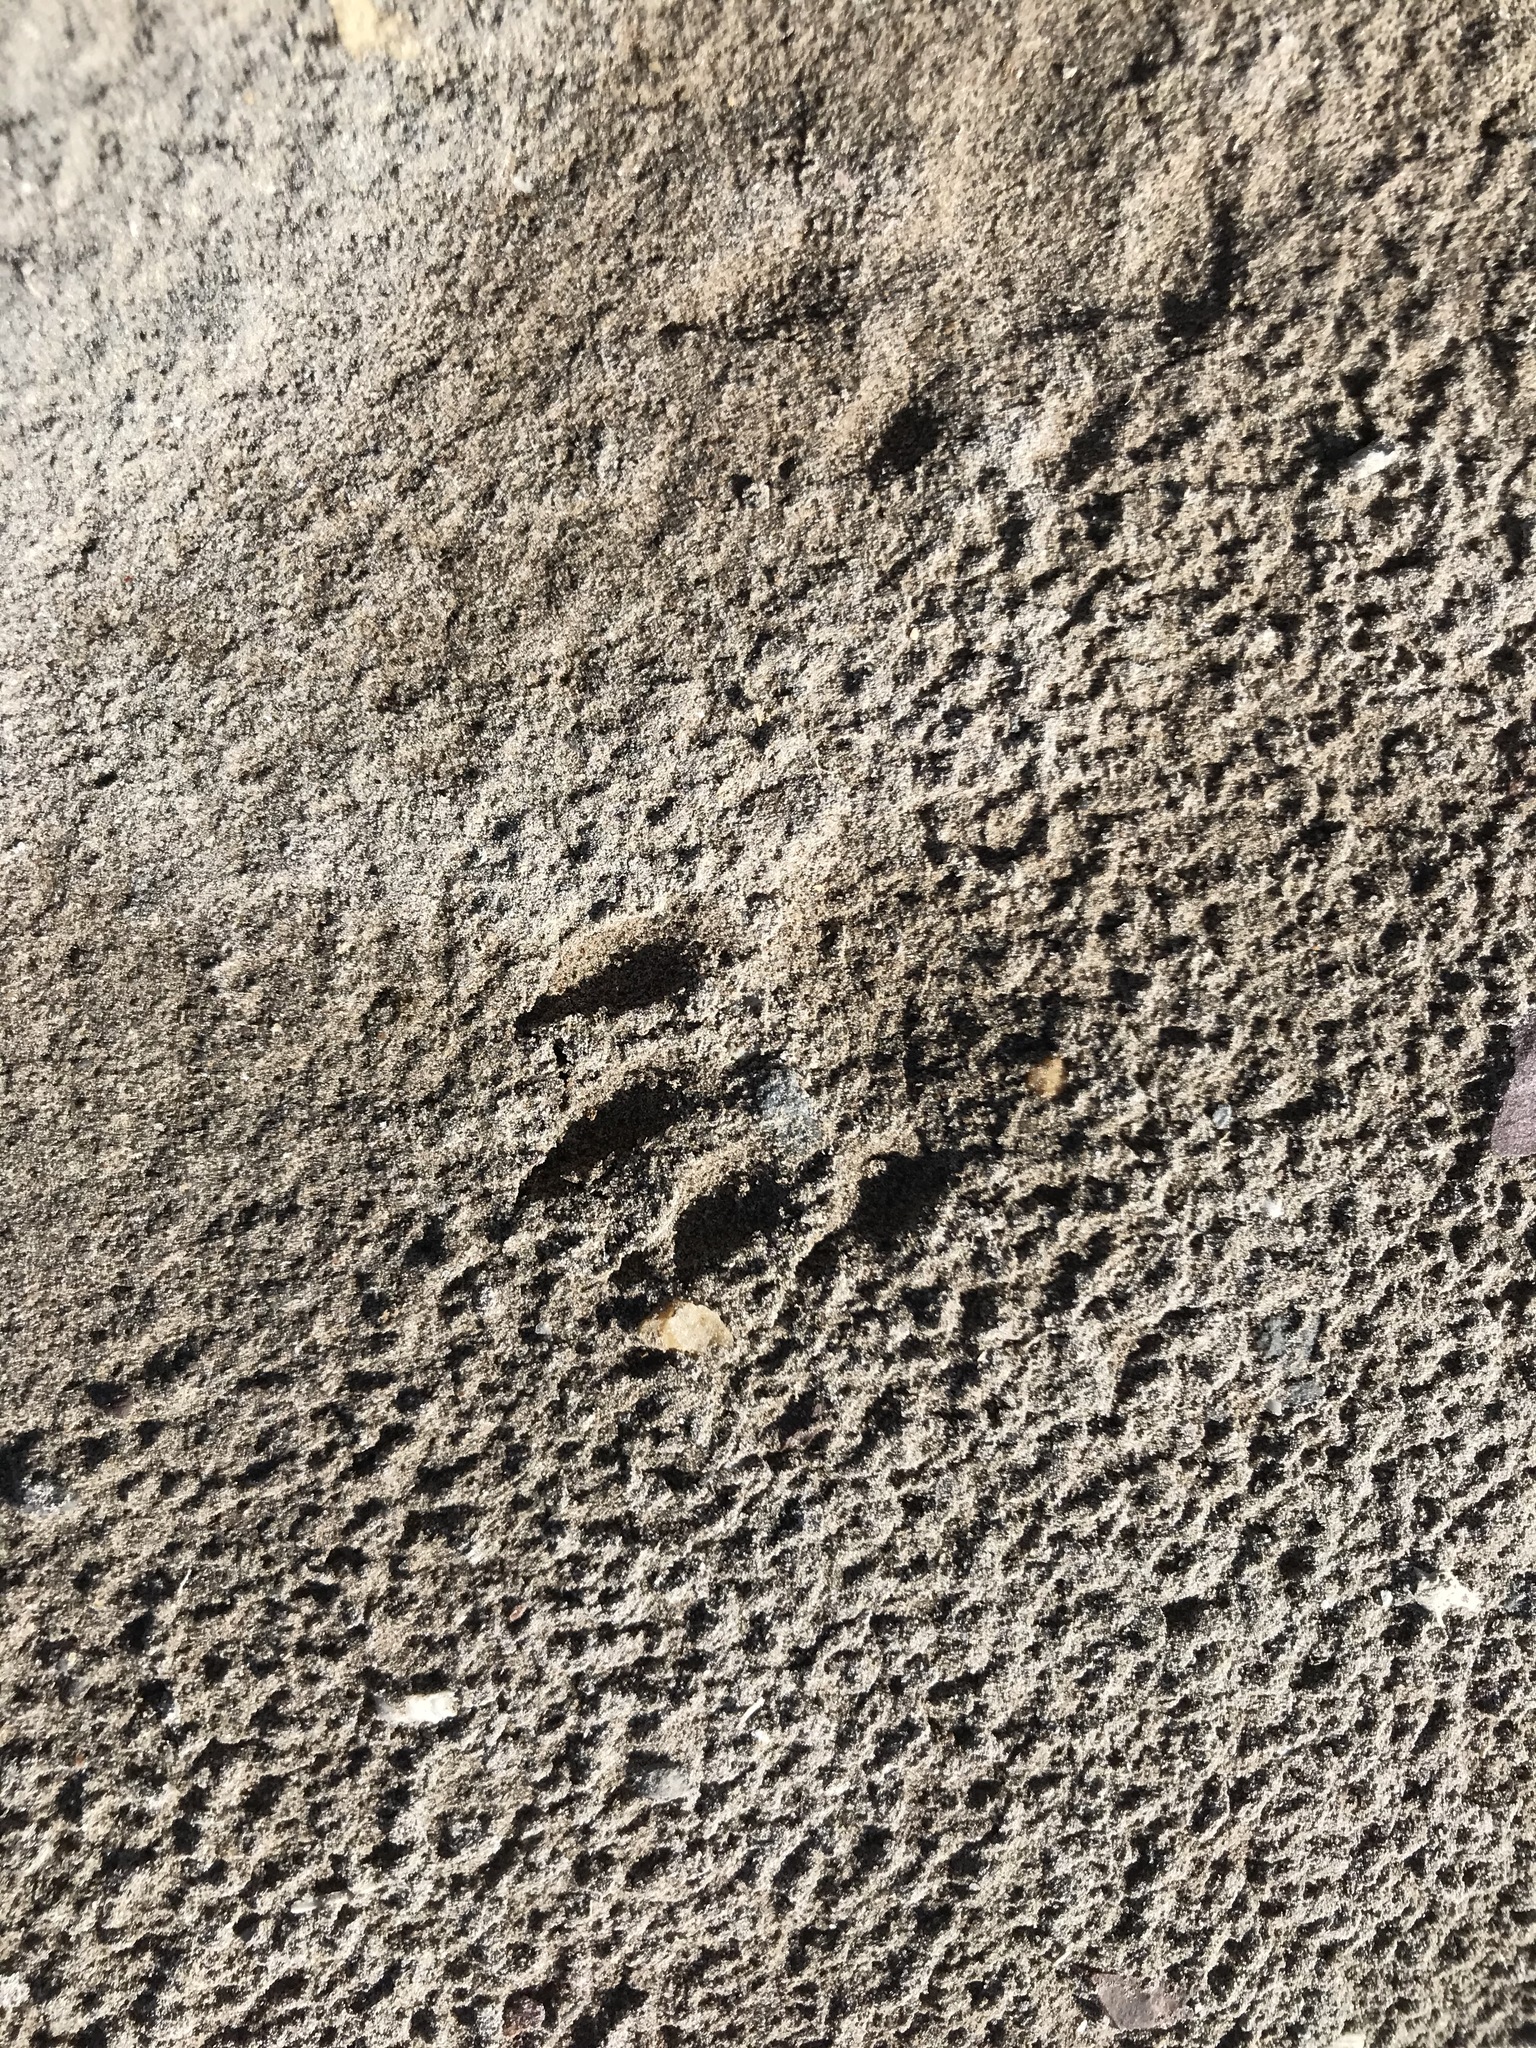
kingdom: Animalia
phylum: Chordata
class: Mammalia
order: Carnivora
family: Procyonidae
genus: Procyon
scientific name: Procyon lotor
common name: Raccoon
